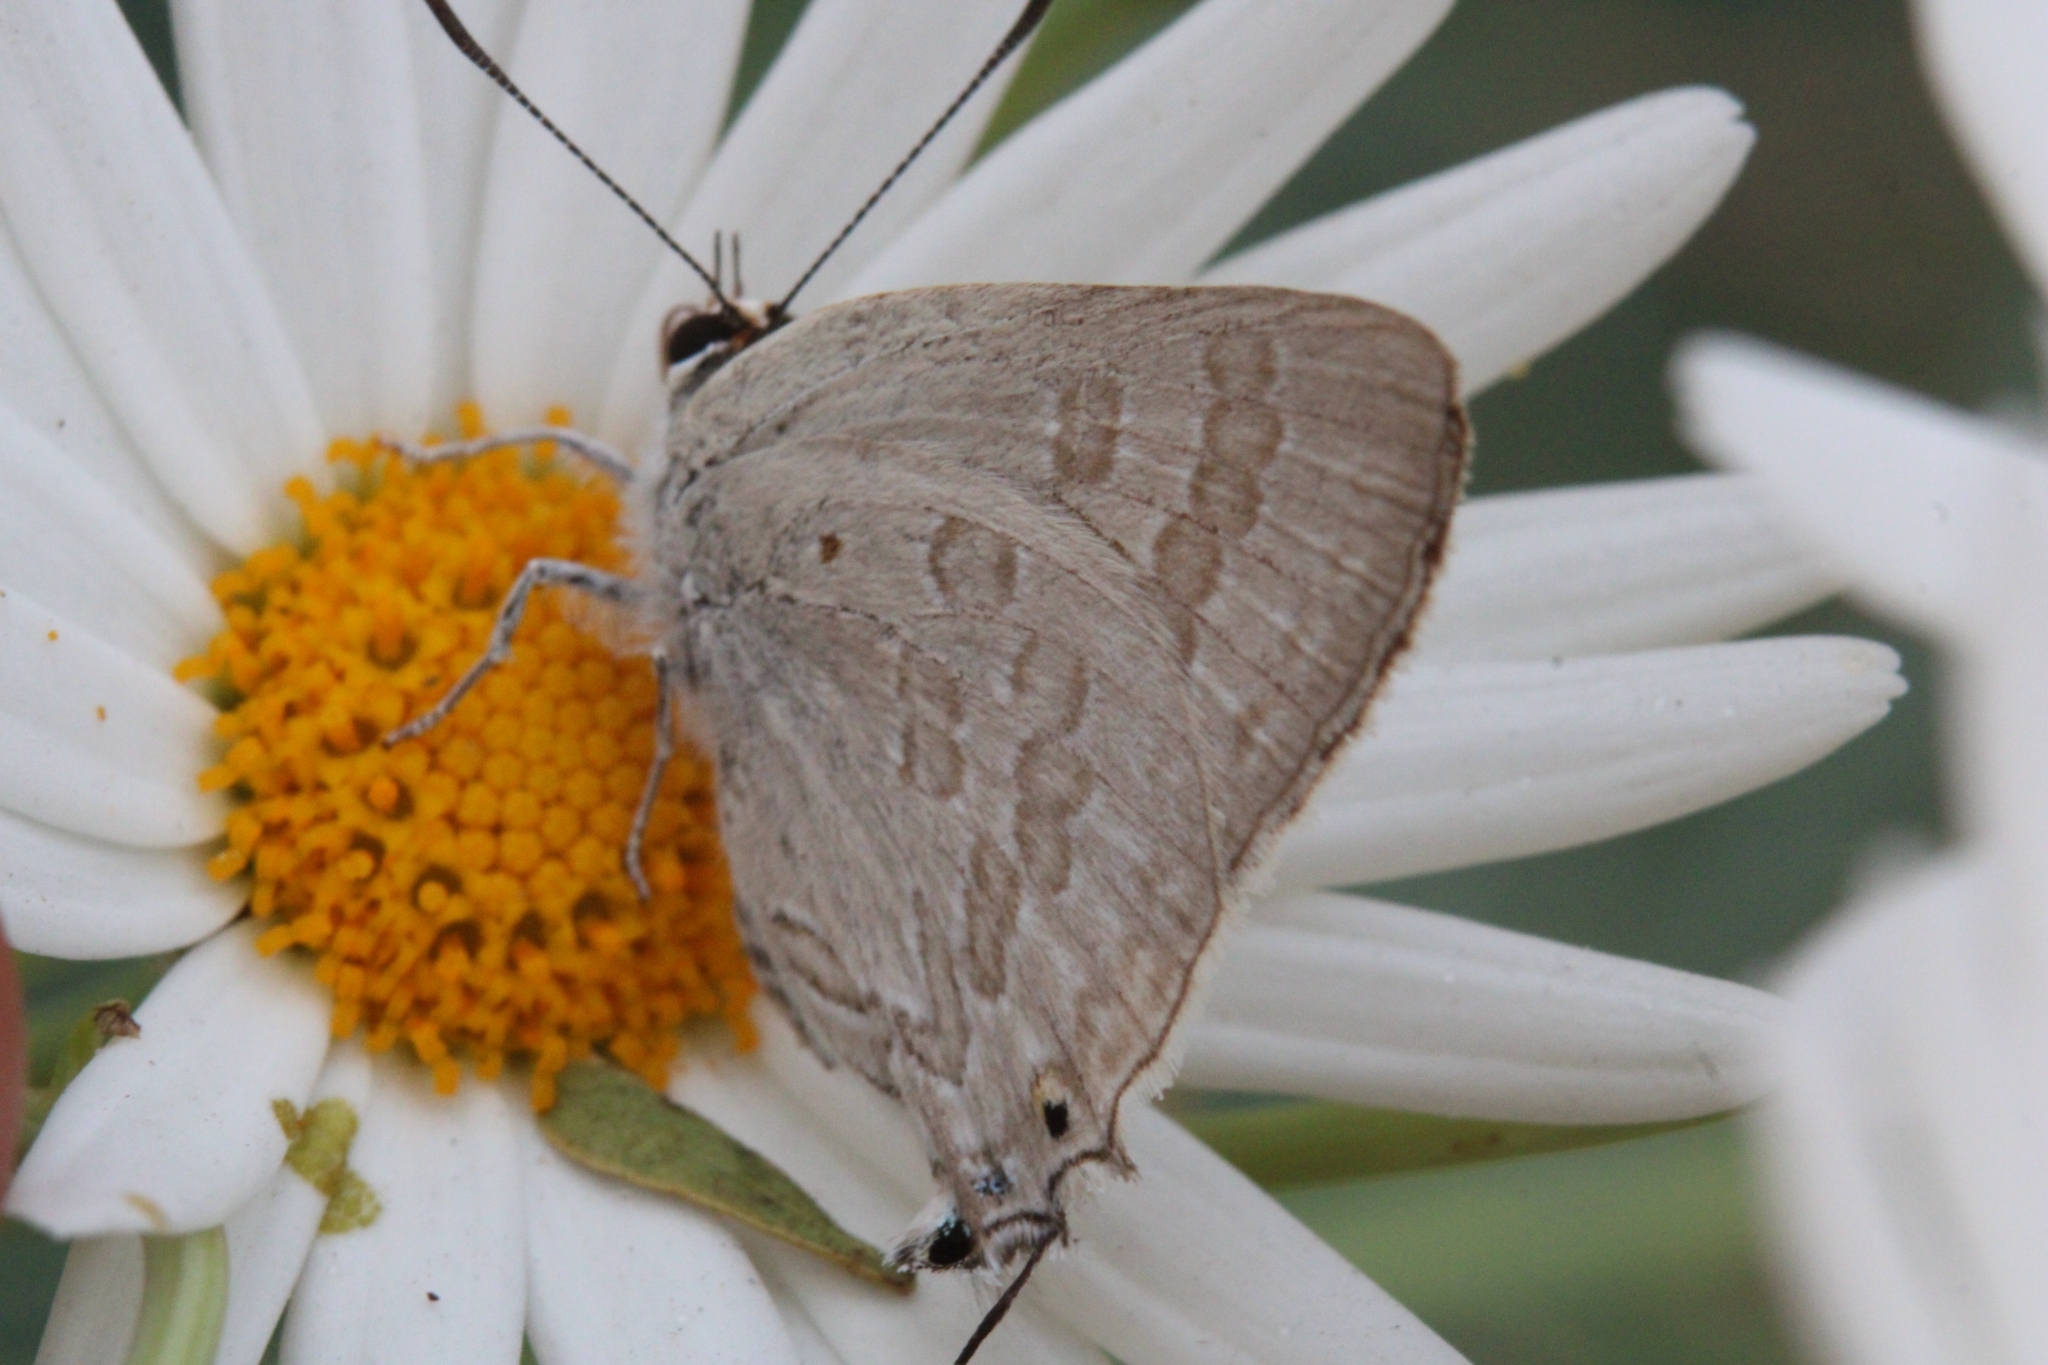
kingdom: Animalia
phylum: Arthropoda
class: Insecta
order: Lepidoptera
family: Lycaenidae
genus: Deudorix
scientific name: Deudorix antalus
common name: Brown playboy
